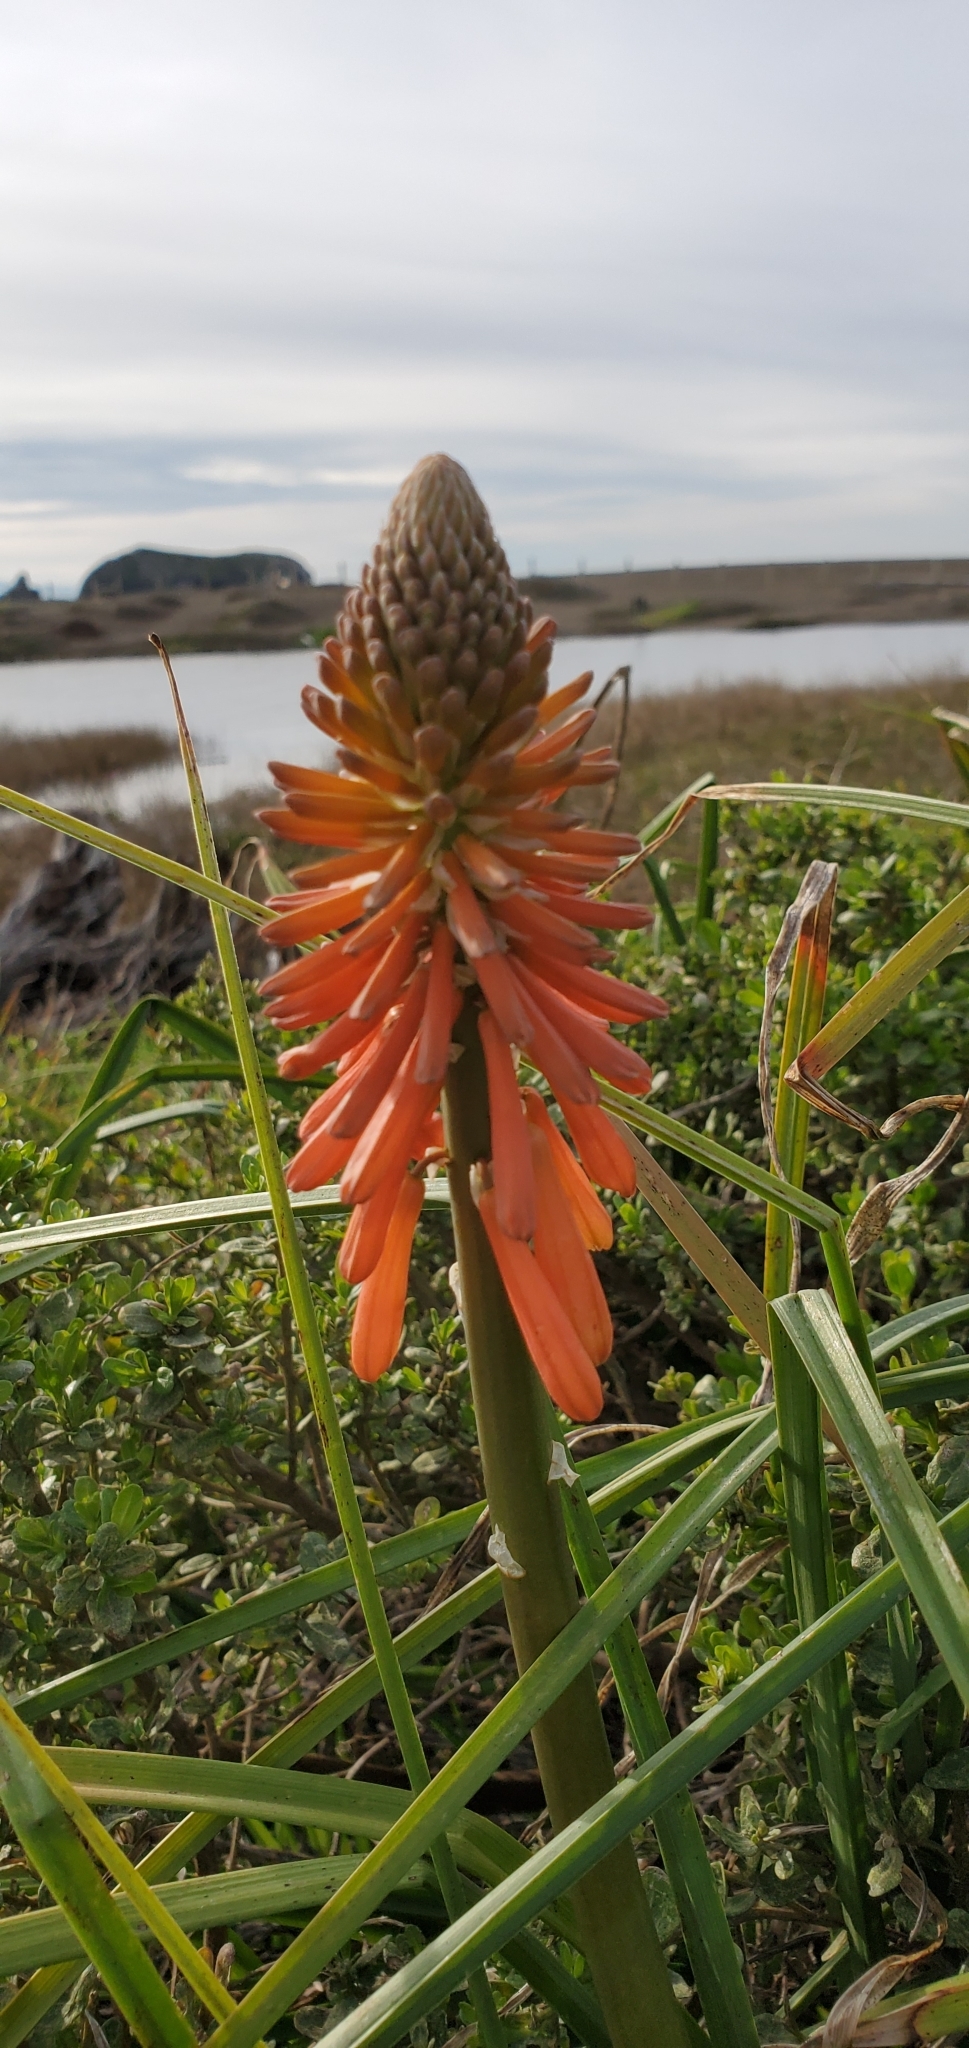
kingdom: Plantae
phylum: Tracheophyta
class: Liliopsida
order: Asparagales
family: Asphodelaceae
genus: Kniphofia
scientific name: Kniphofia uvaria
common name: Red-hot-poker
